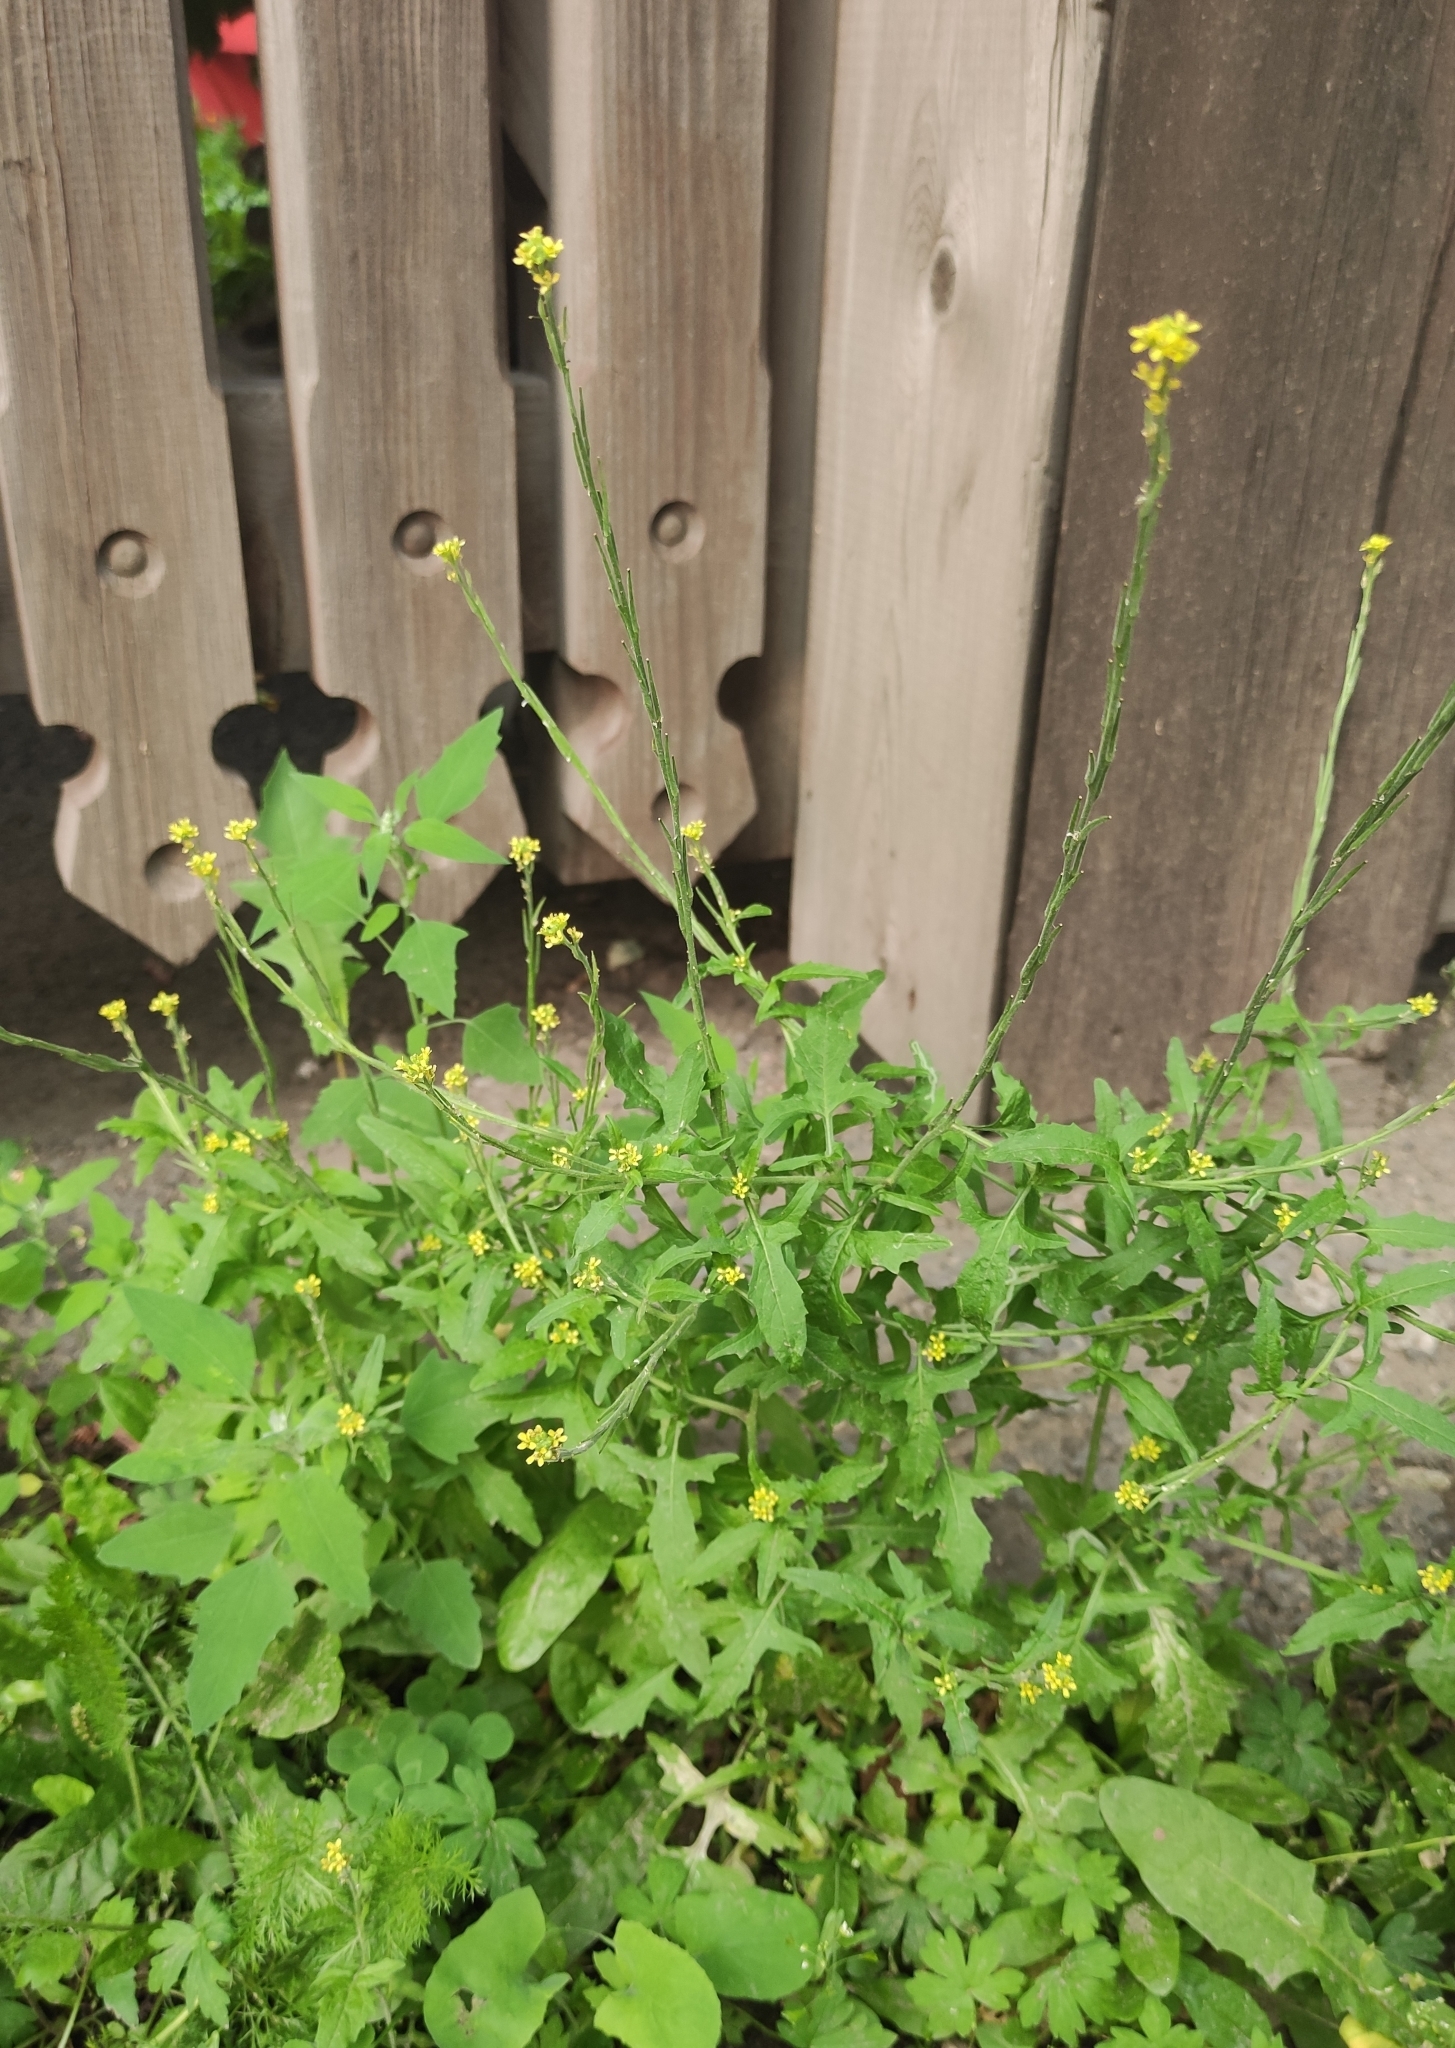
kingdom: Plantae
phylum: Tracheophyta
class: Magnoliopsida
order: Brassicales
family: Brassicaceae
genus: Sisymbrium
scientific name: Sisymbrium officinale
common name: Hedge mustard
